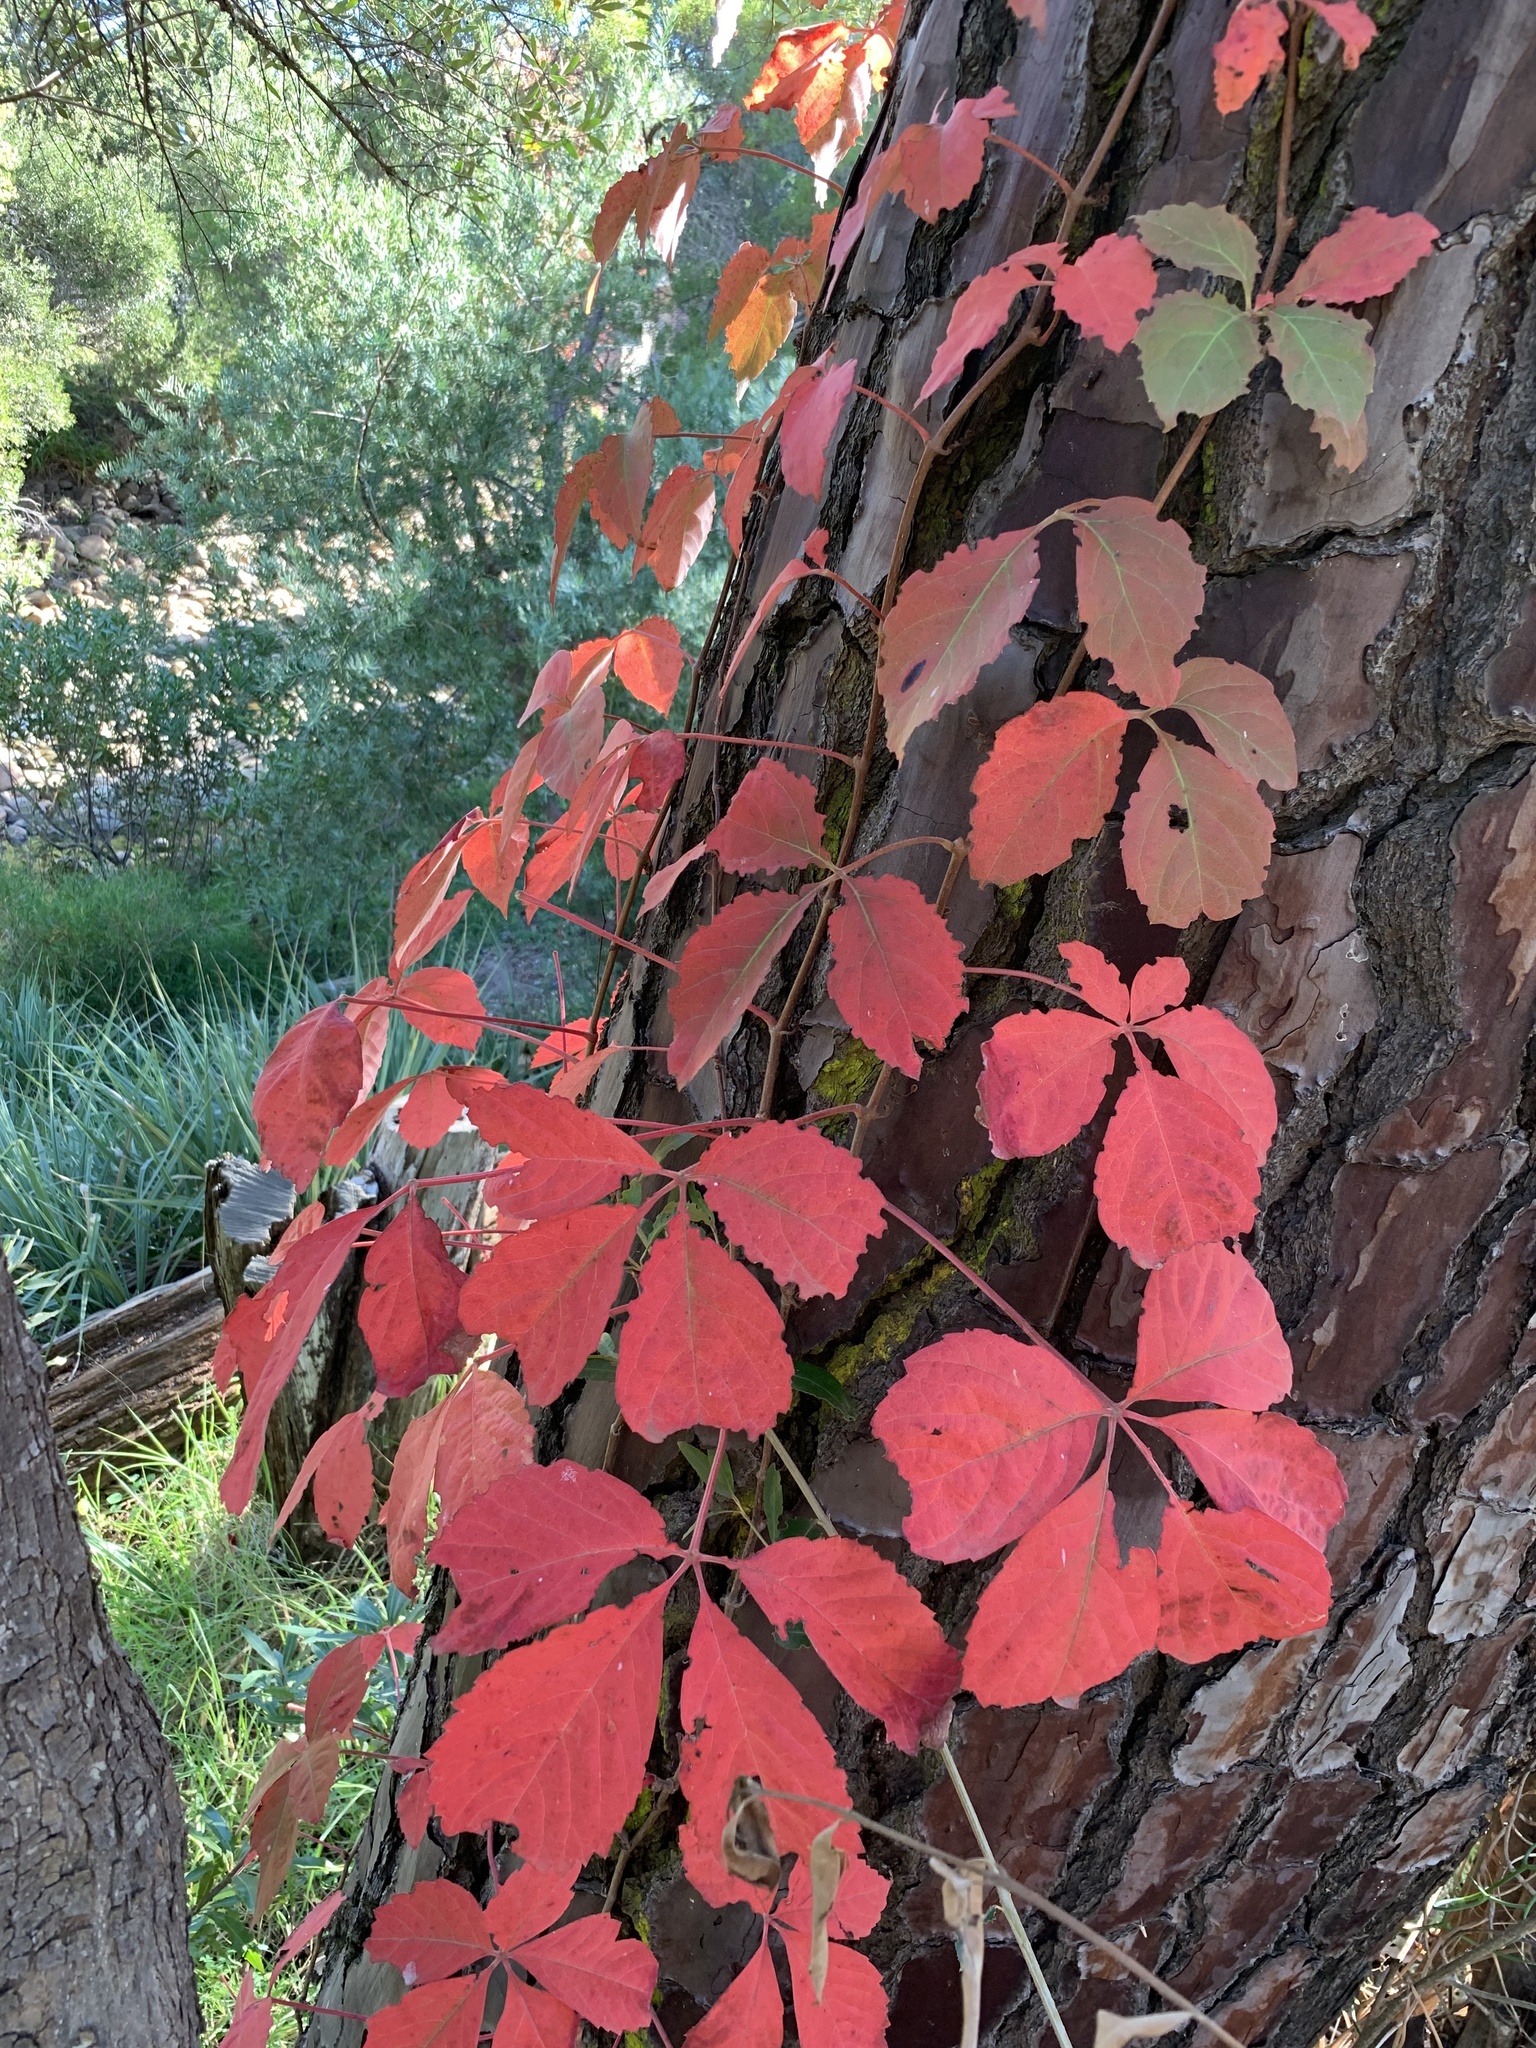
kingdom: Plantae
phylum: Tracheophyta
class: Magnoliopsida
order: Vitales
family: Vitaceae
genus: Parthenocissus
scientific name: Parthenocissus quinquefolia
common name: Virginia-creeper
